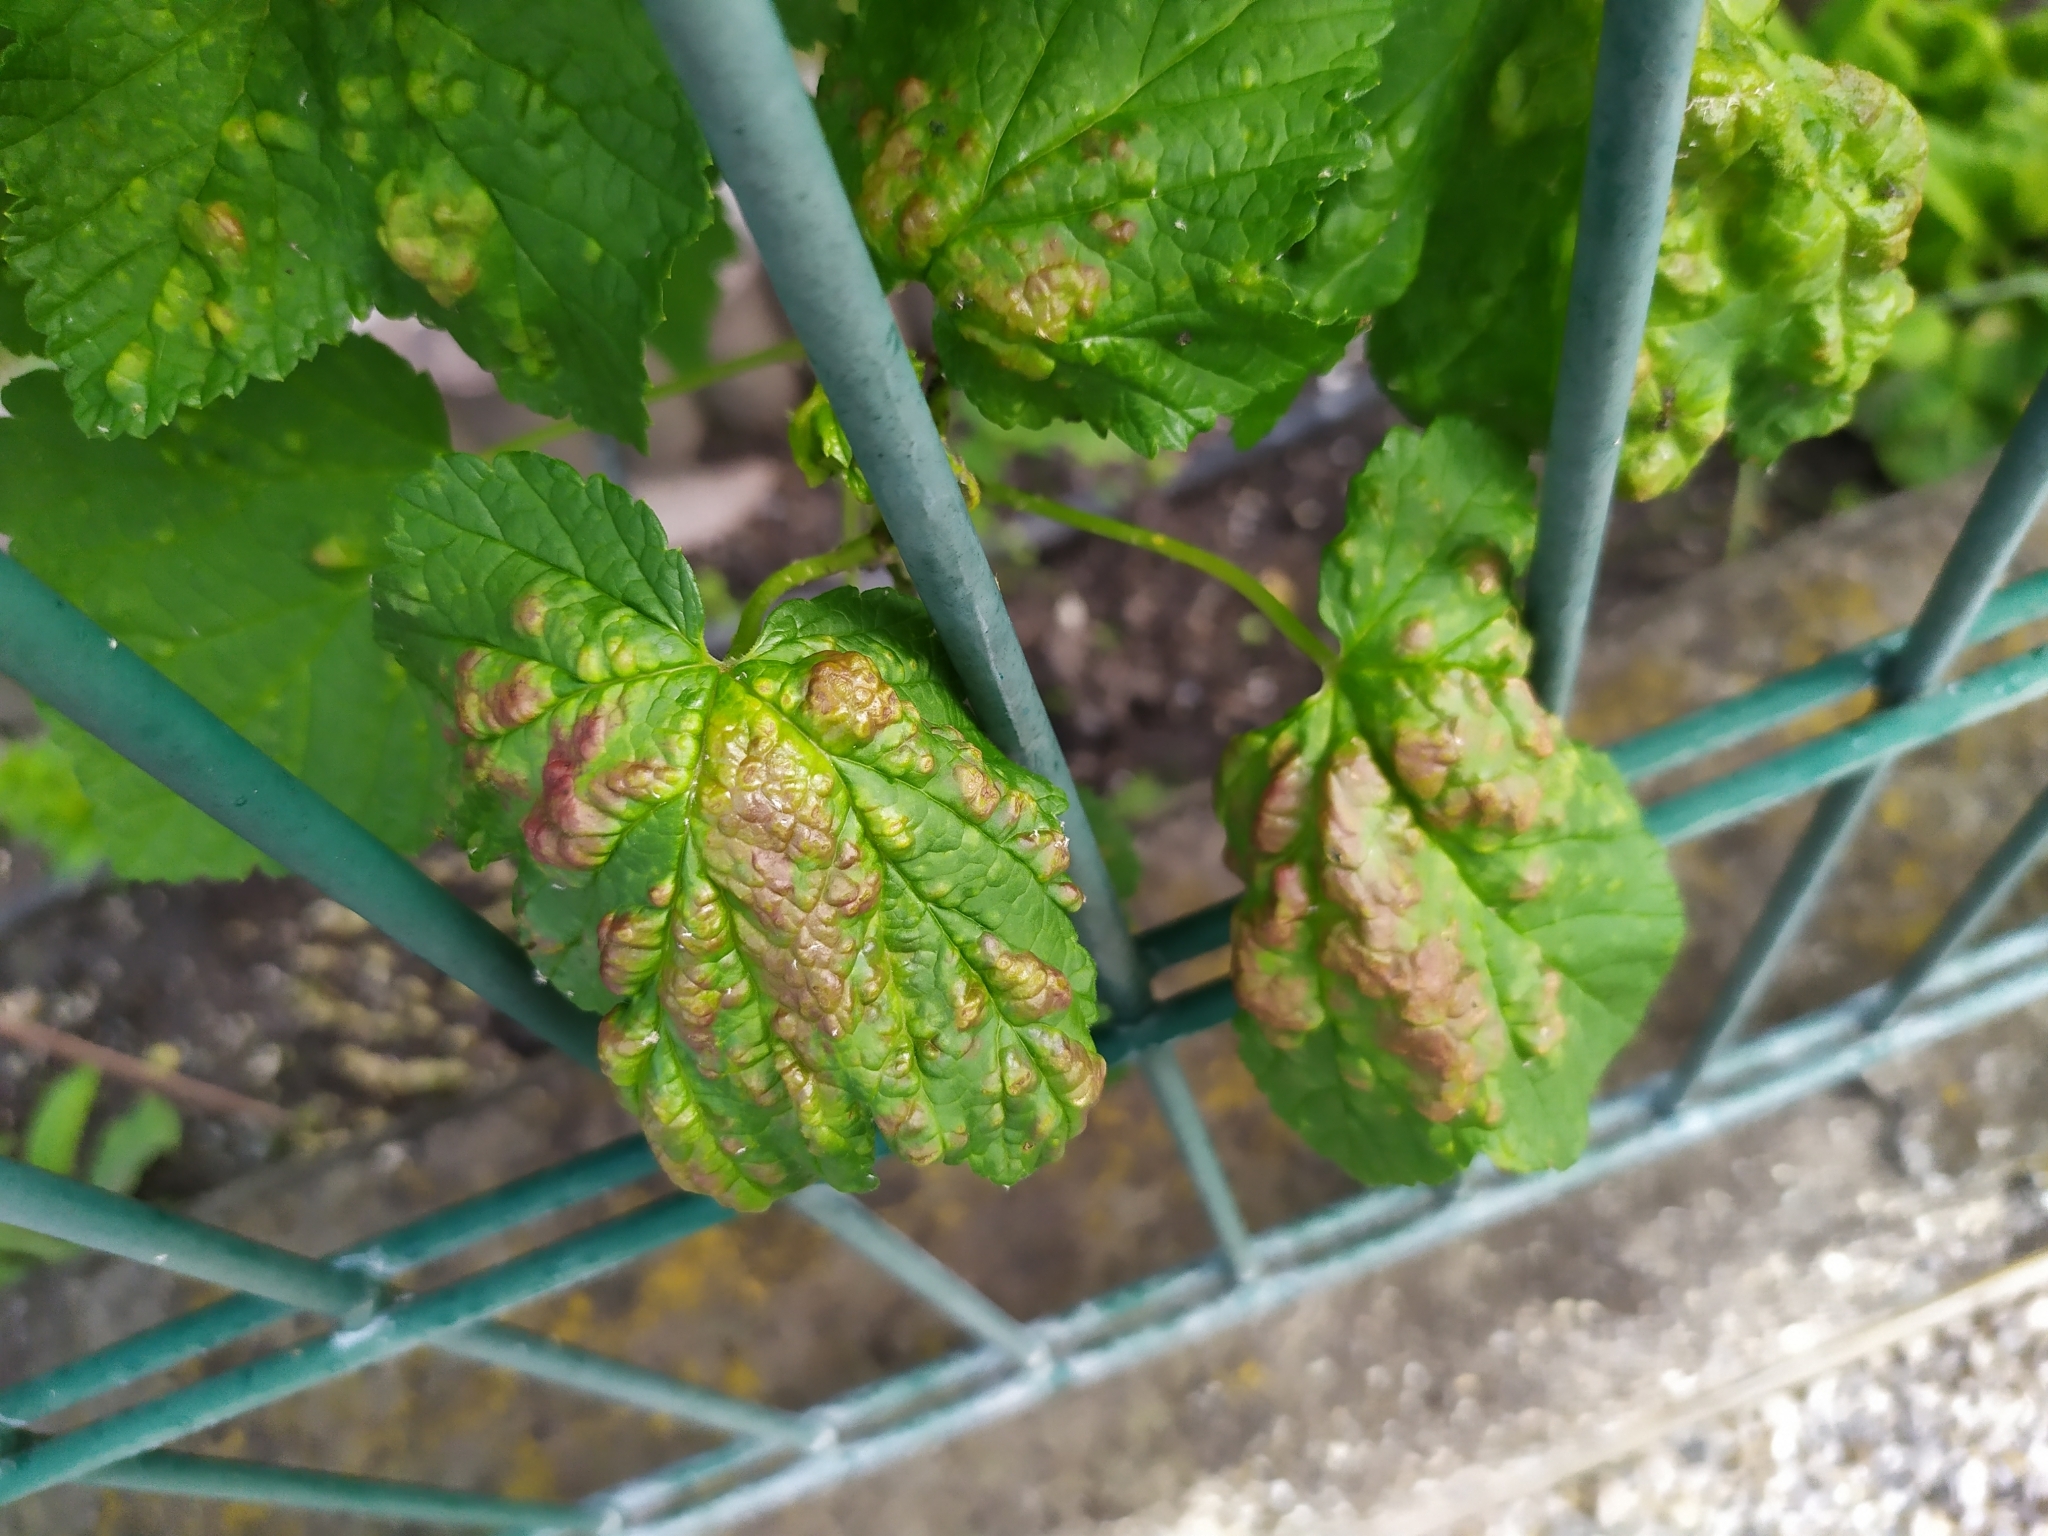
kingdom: Animalia
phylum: Arthropoda
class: Insecta
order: Hemiptera
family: Aphididae
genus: Cryptomyzus
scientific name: Cryptomyzus ribis
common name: Currant aphid
